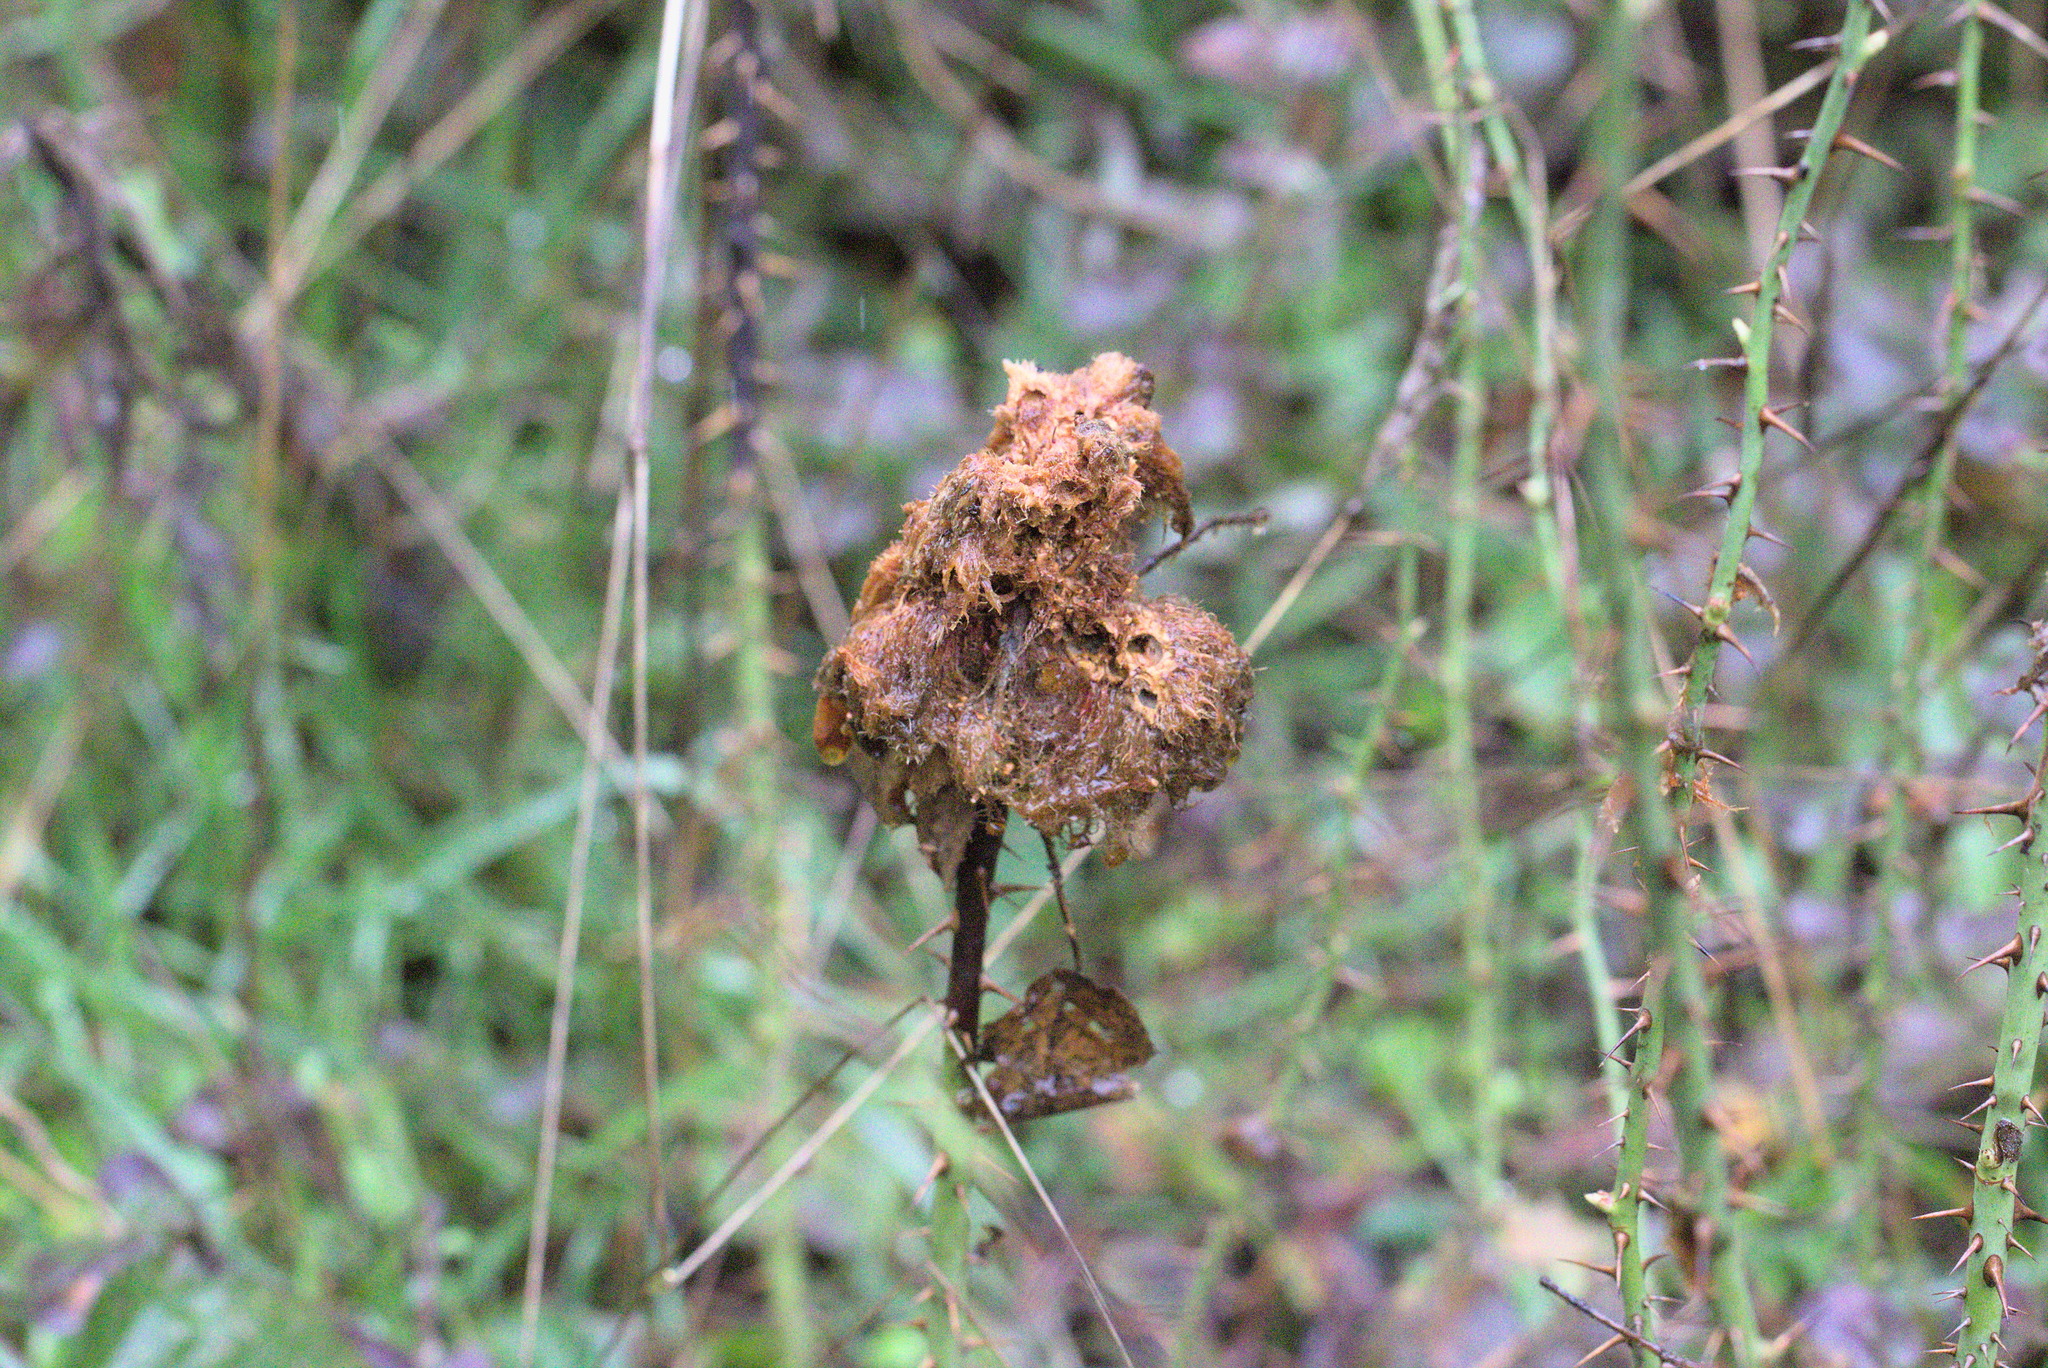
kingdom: Animalia
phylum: Arthropoda
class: Insecta
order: Hymenoptera
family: Cynipidae
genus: Diplolepis
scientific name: Diplolepis rosae
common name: Bedeguar gall
